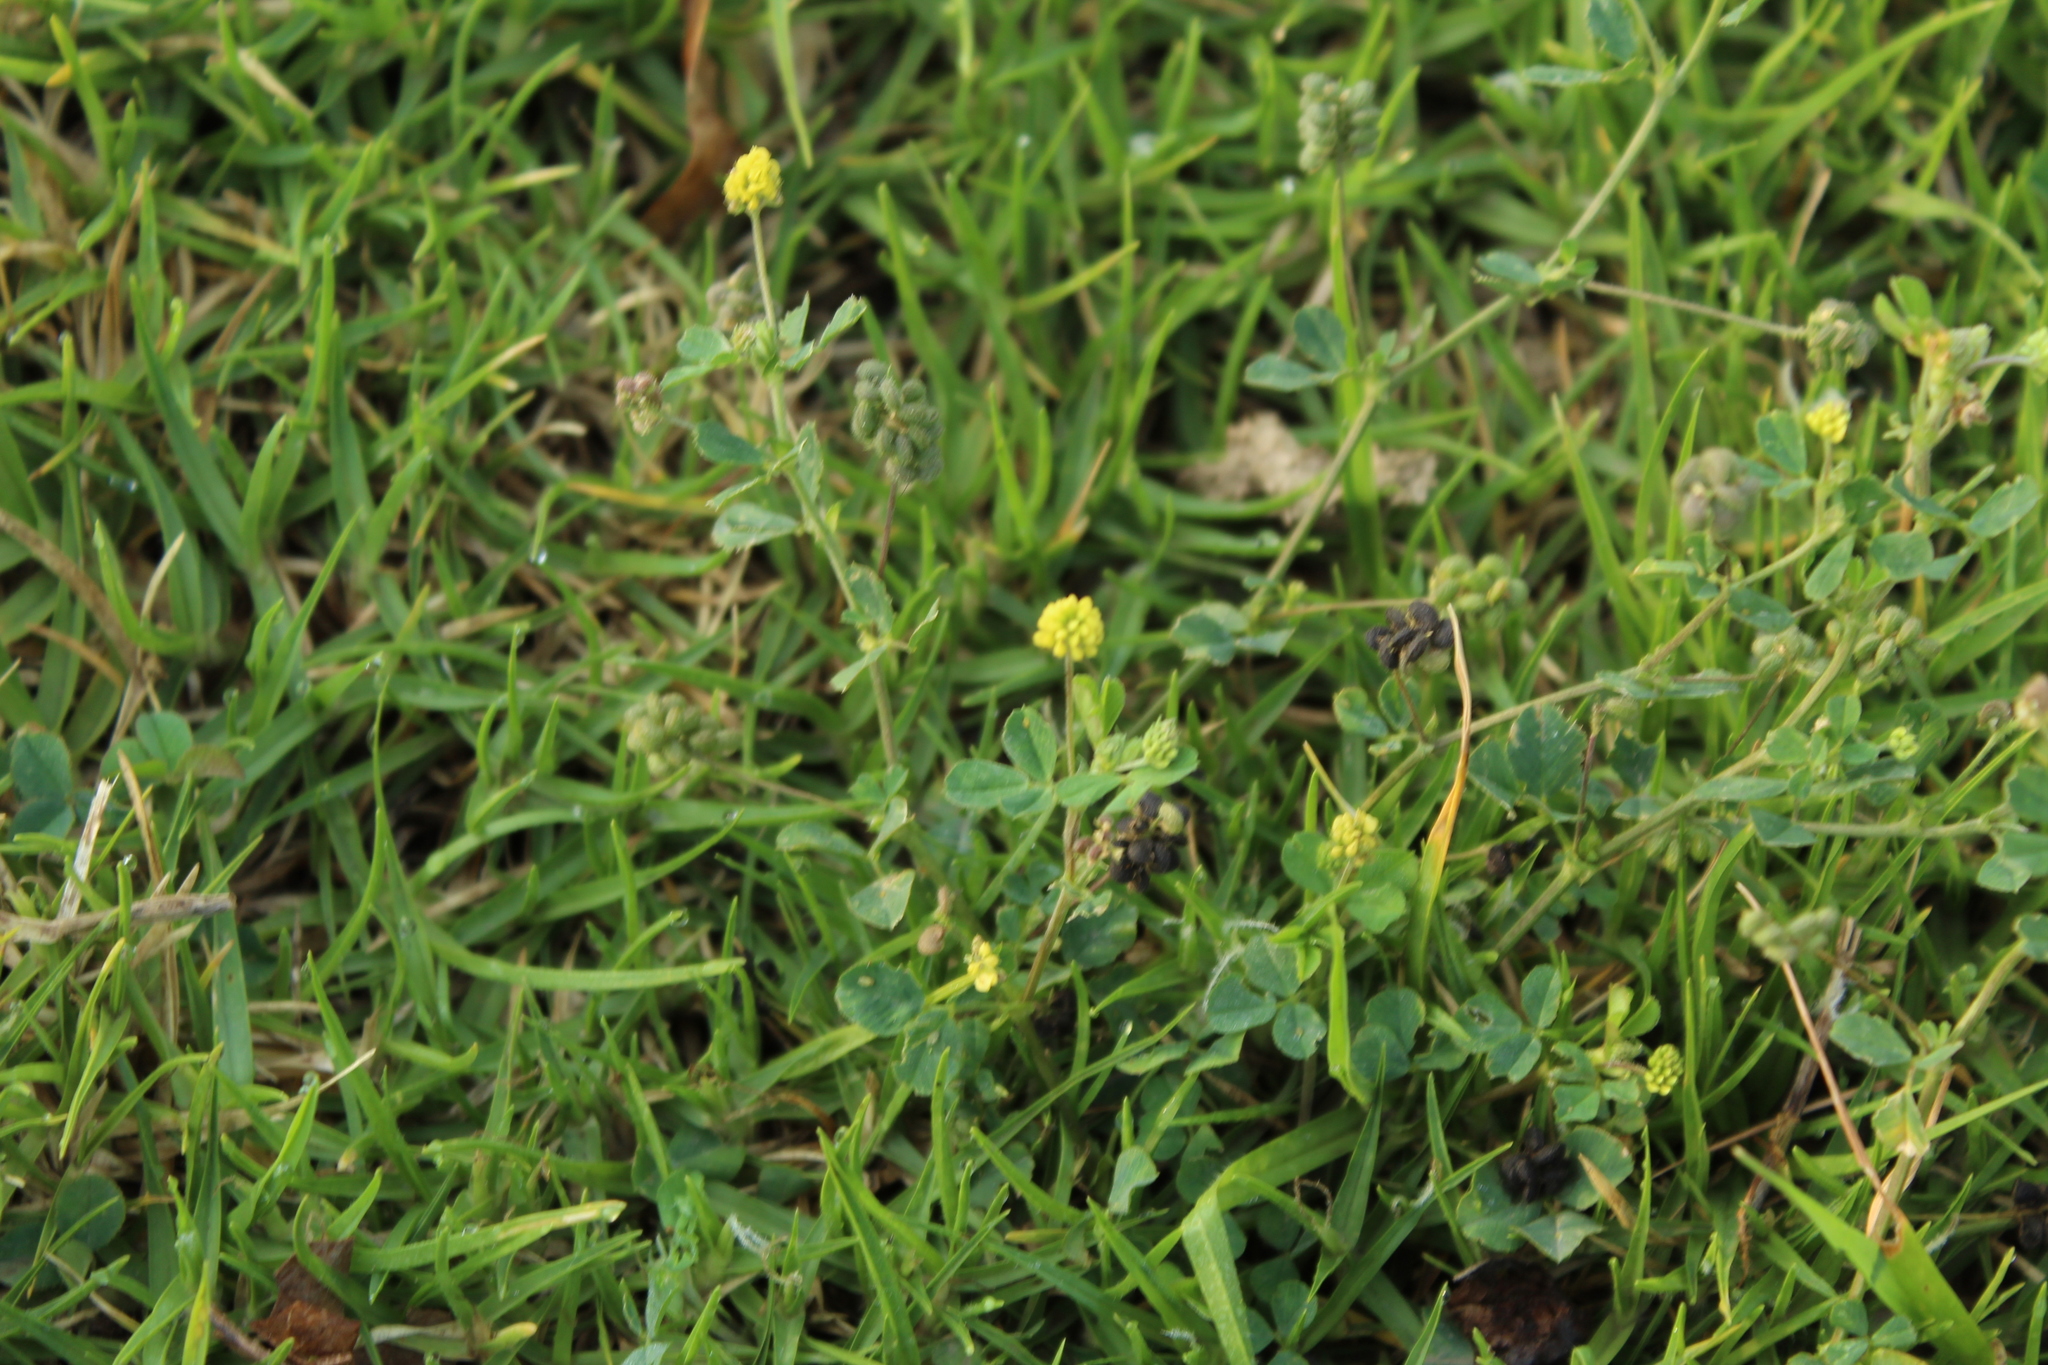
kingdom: Plantae
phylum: Tracheophyta
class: Magnoliopsida
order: Fabales
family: Fabaceae
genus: Medicago
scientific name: Medicago lupulina
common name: Black medick
